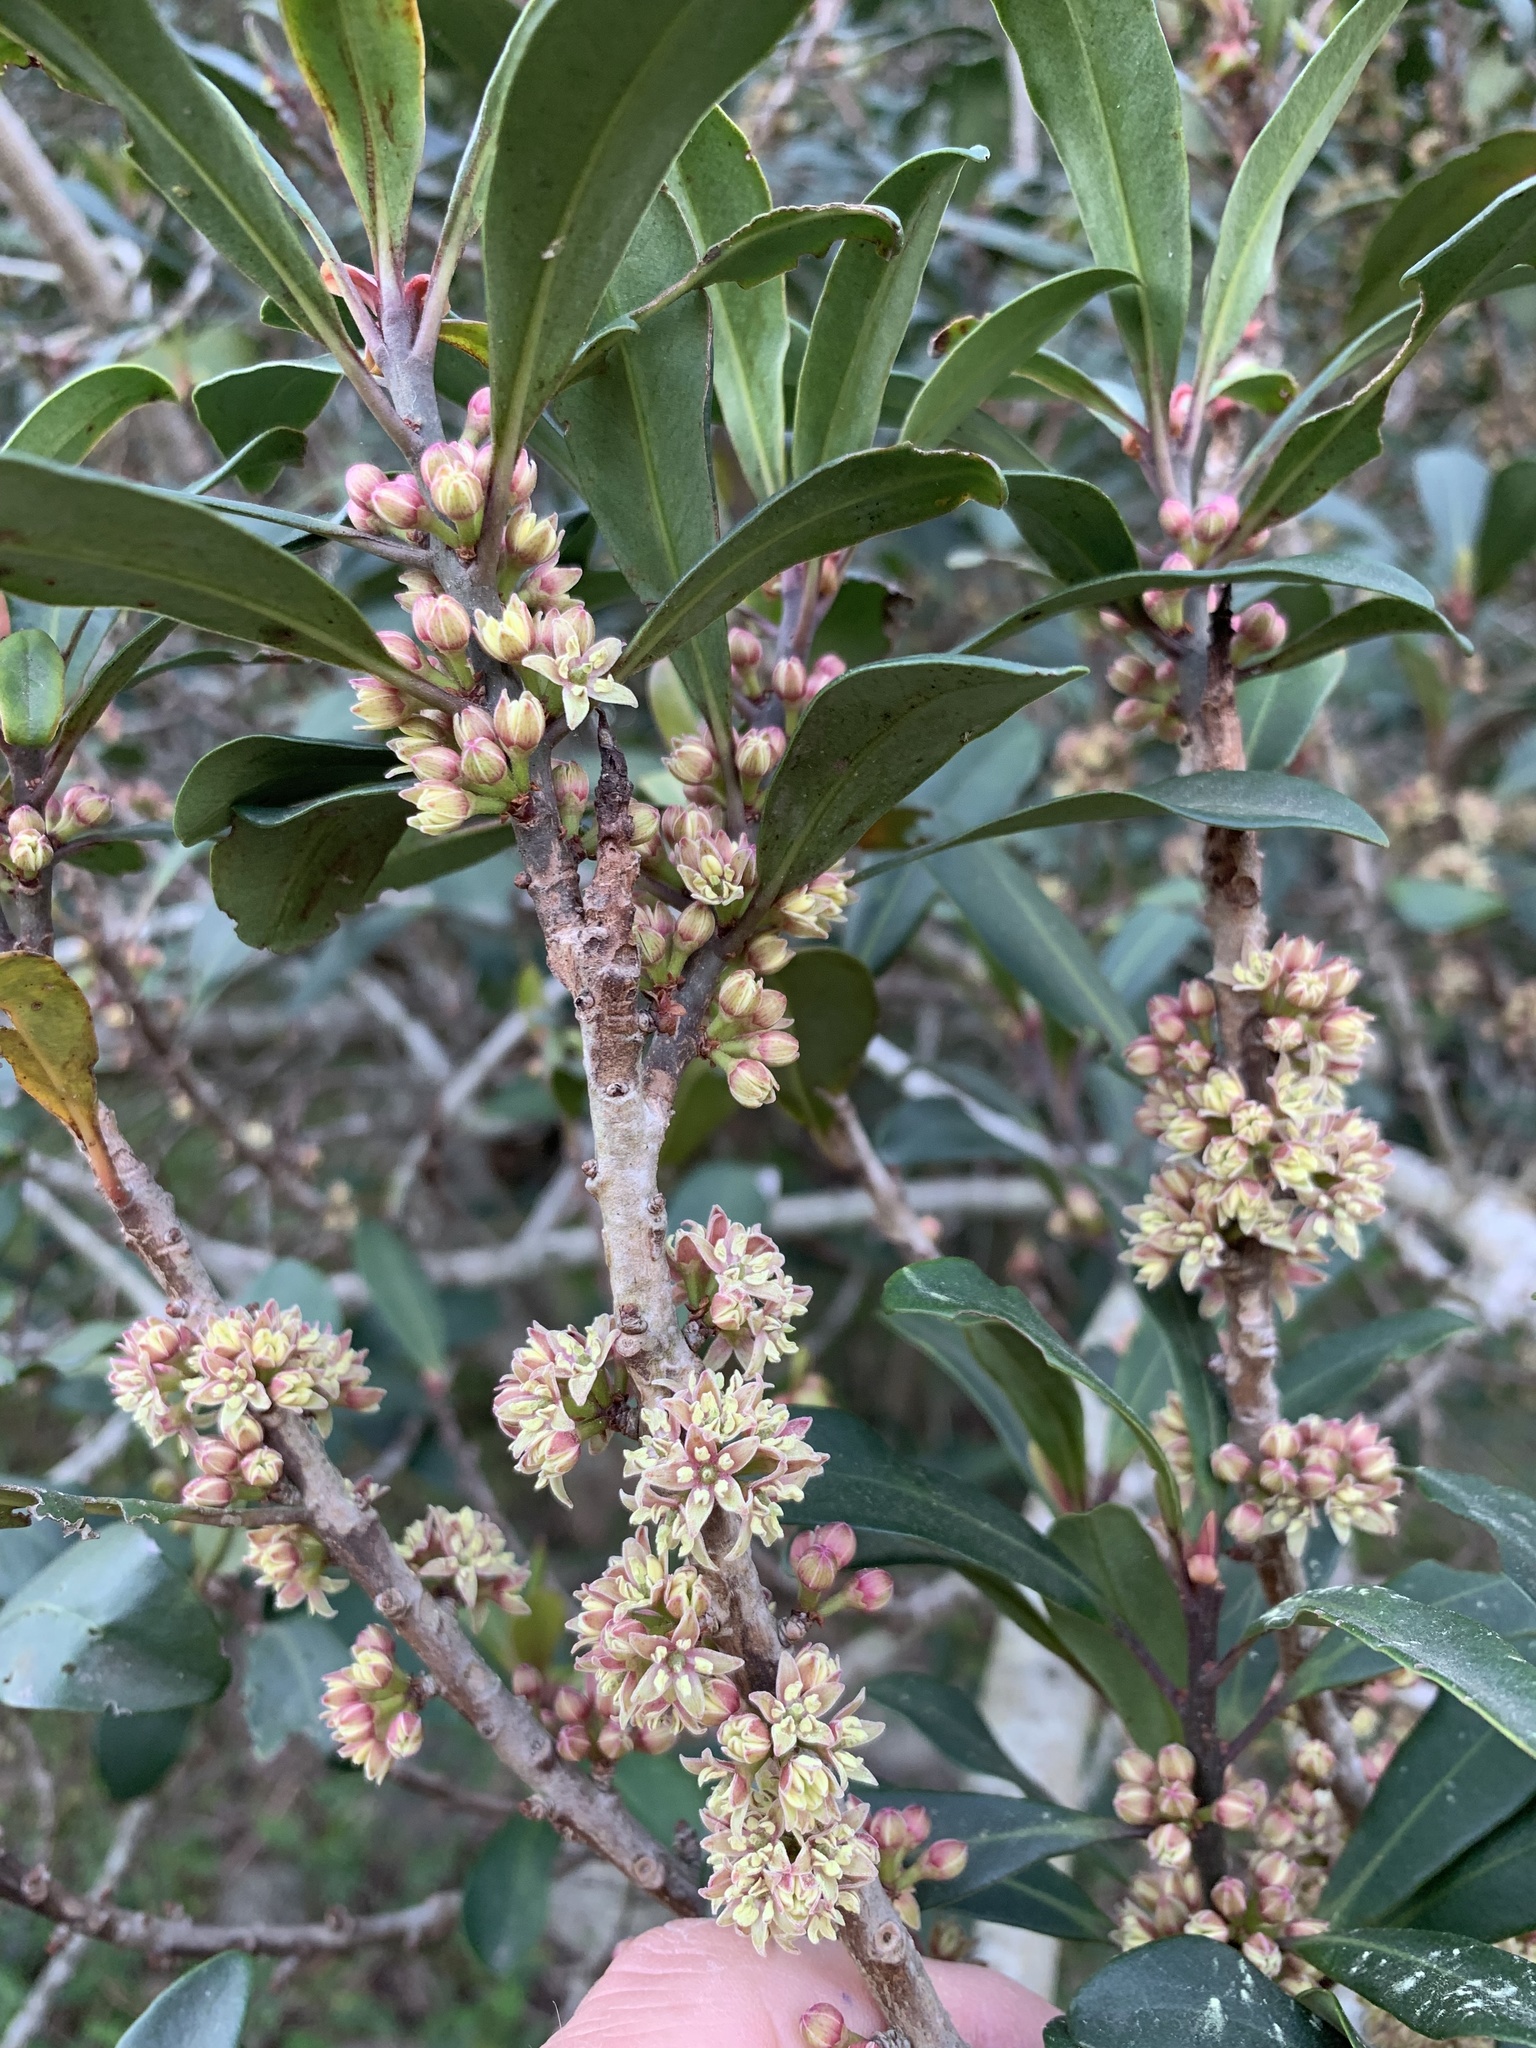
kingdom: Plantae
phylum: Tracheophyta
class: Magnoliopsida
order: Ericales
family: Primulaceae
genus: Myrsine
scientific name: Myrsine melanophloeos
